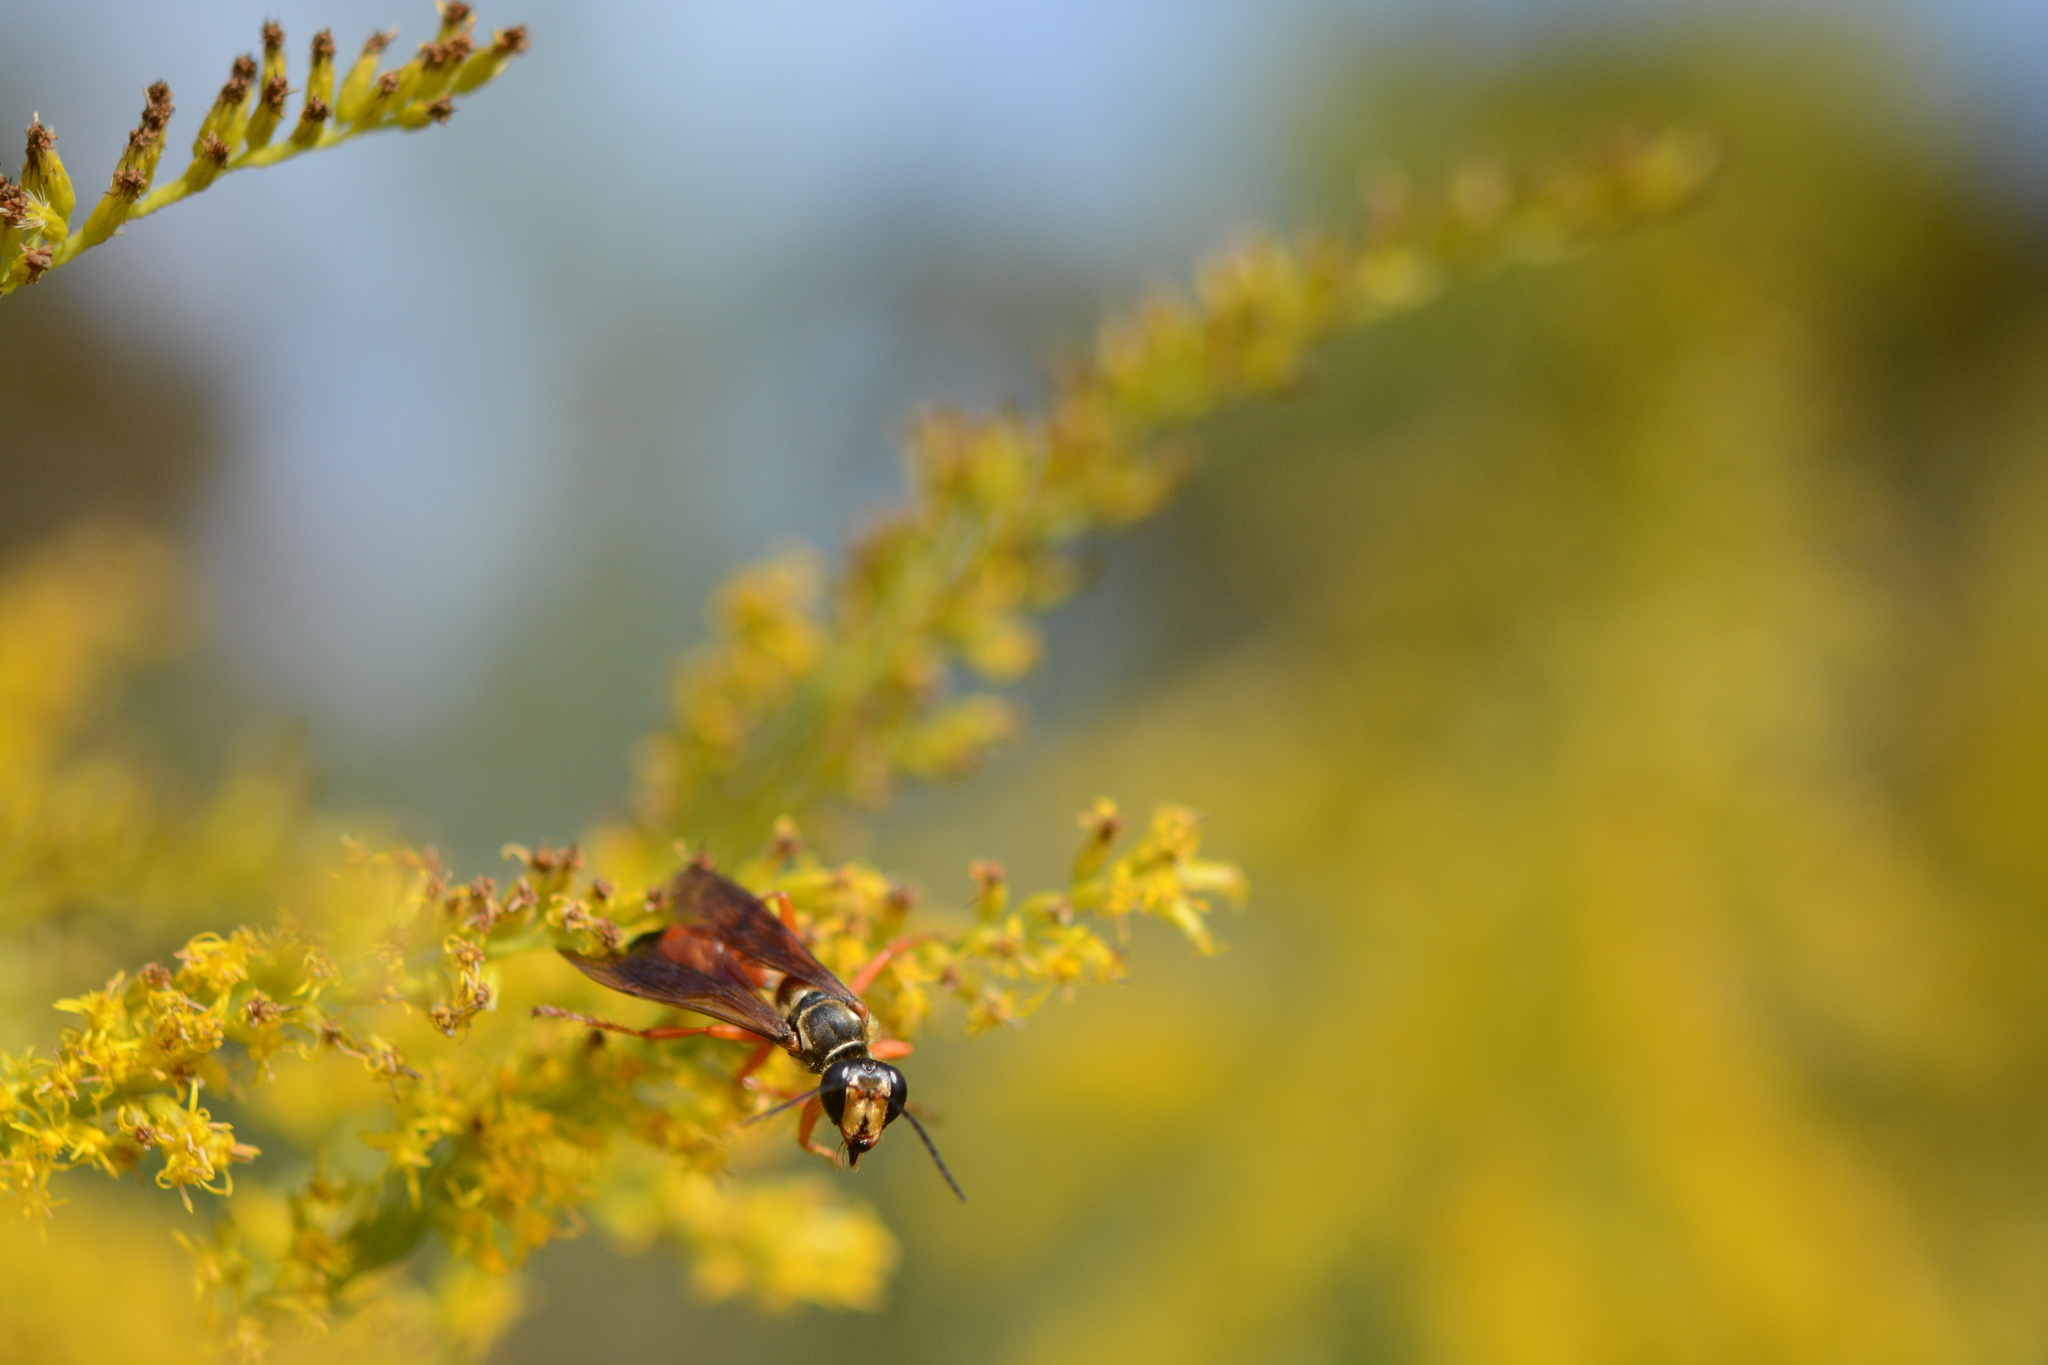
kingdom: Animalia
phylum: Arthropoda
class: Insecta
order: Hymenoptera
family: Sphecidae
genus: Sphex
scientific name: Sphex ichneumoneus
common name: Great golden digger wasp
